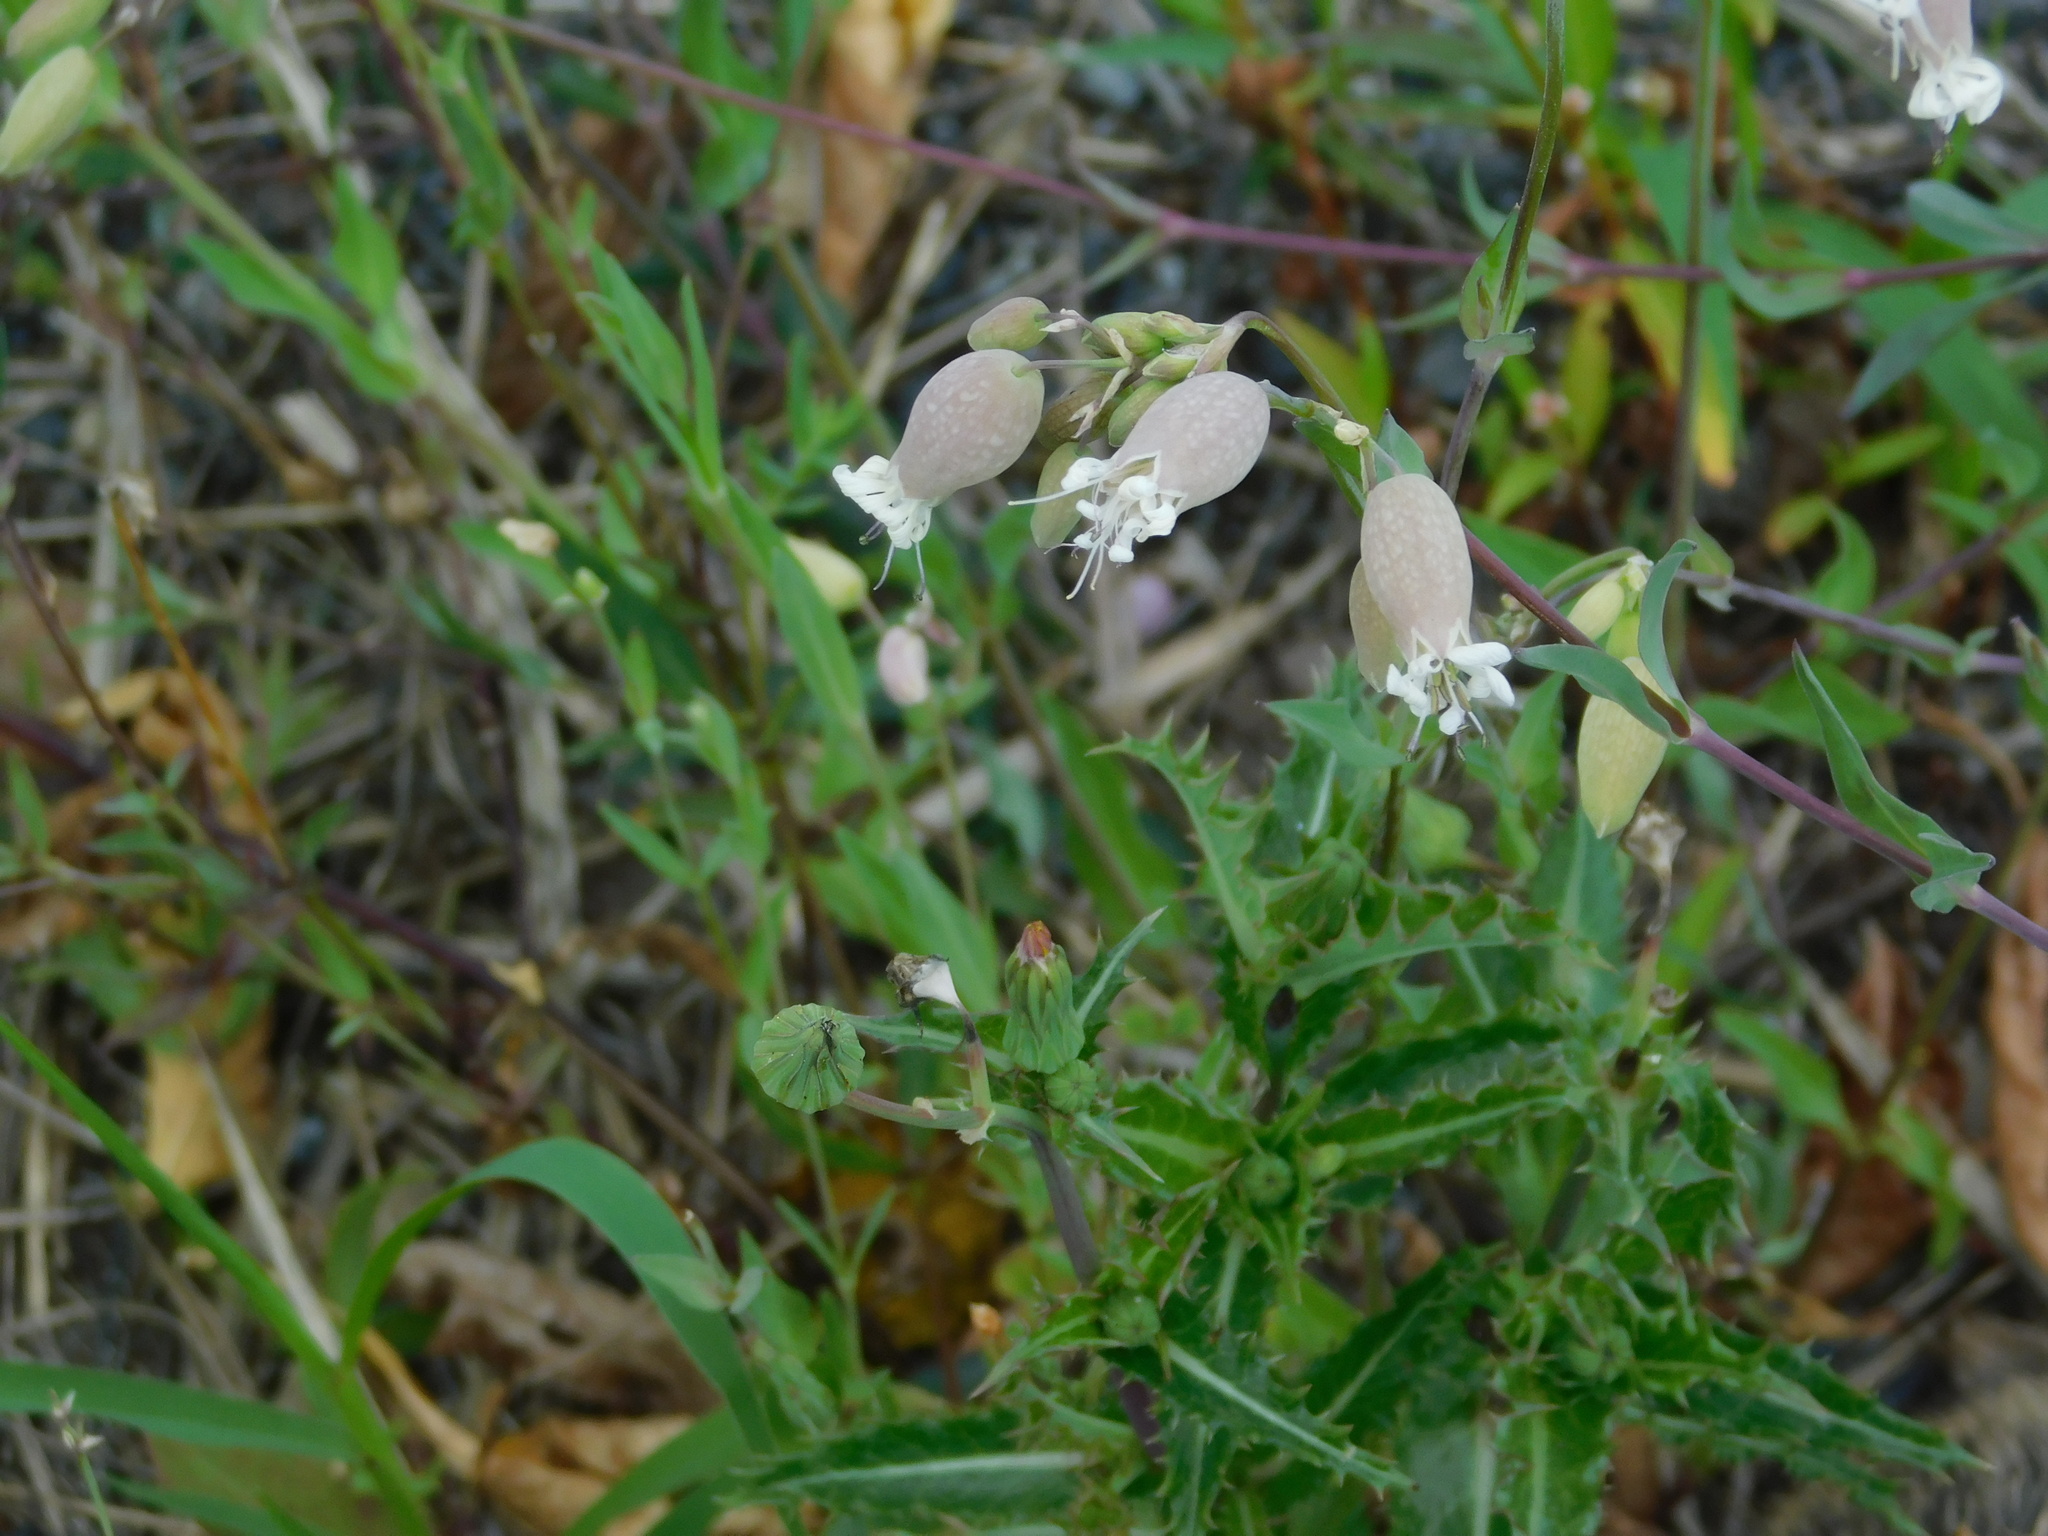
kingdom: Plantae
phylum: Tracheophyta
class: Magnoliopsida
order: Caryophyllales
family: Caryophyllaceae
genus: Silene
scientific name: Silene vulgaris
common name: Bladder campion
